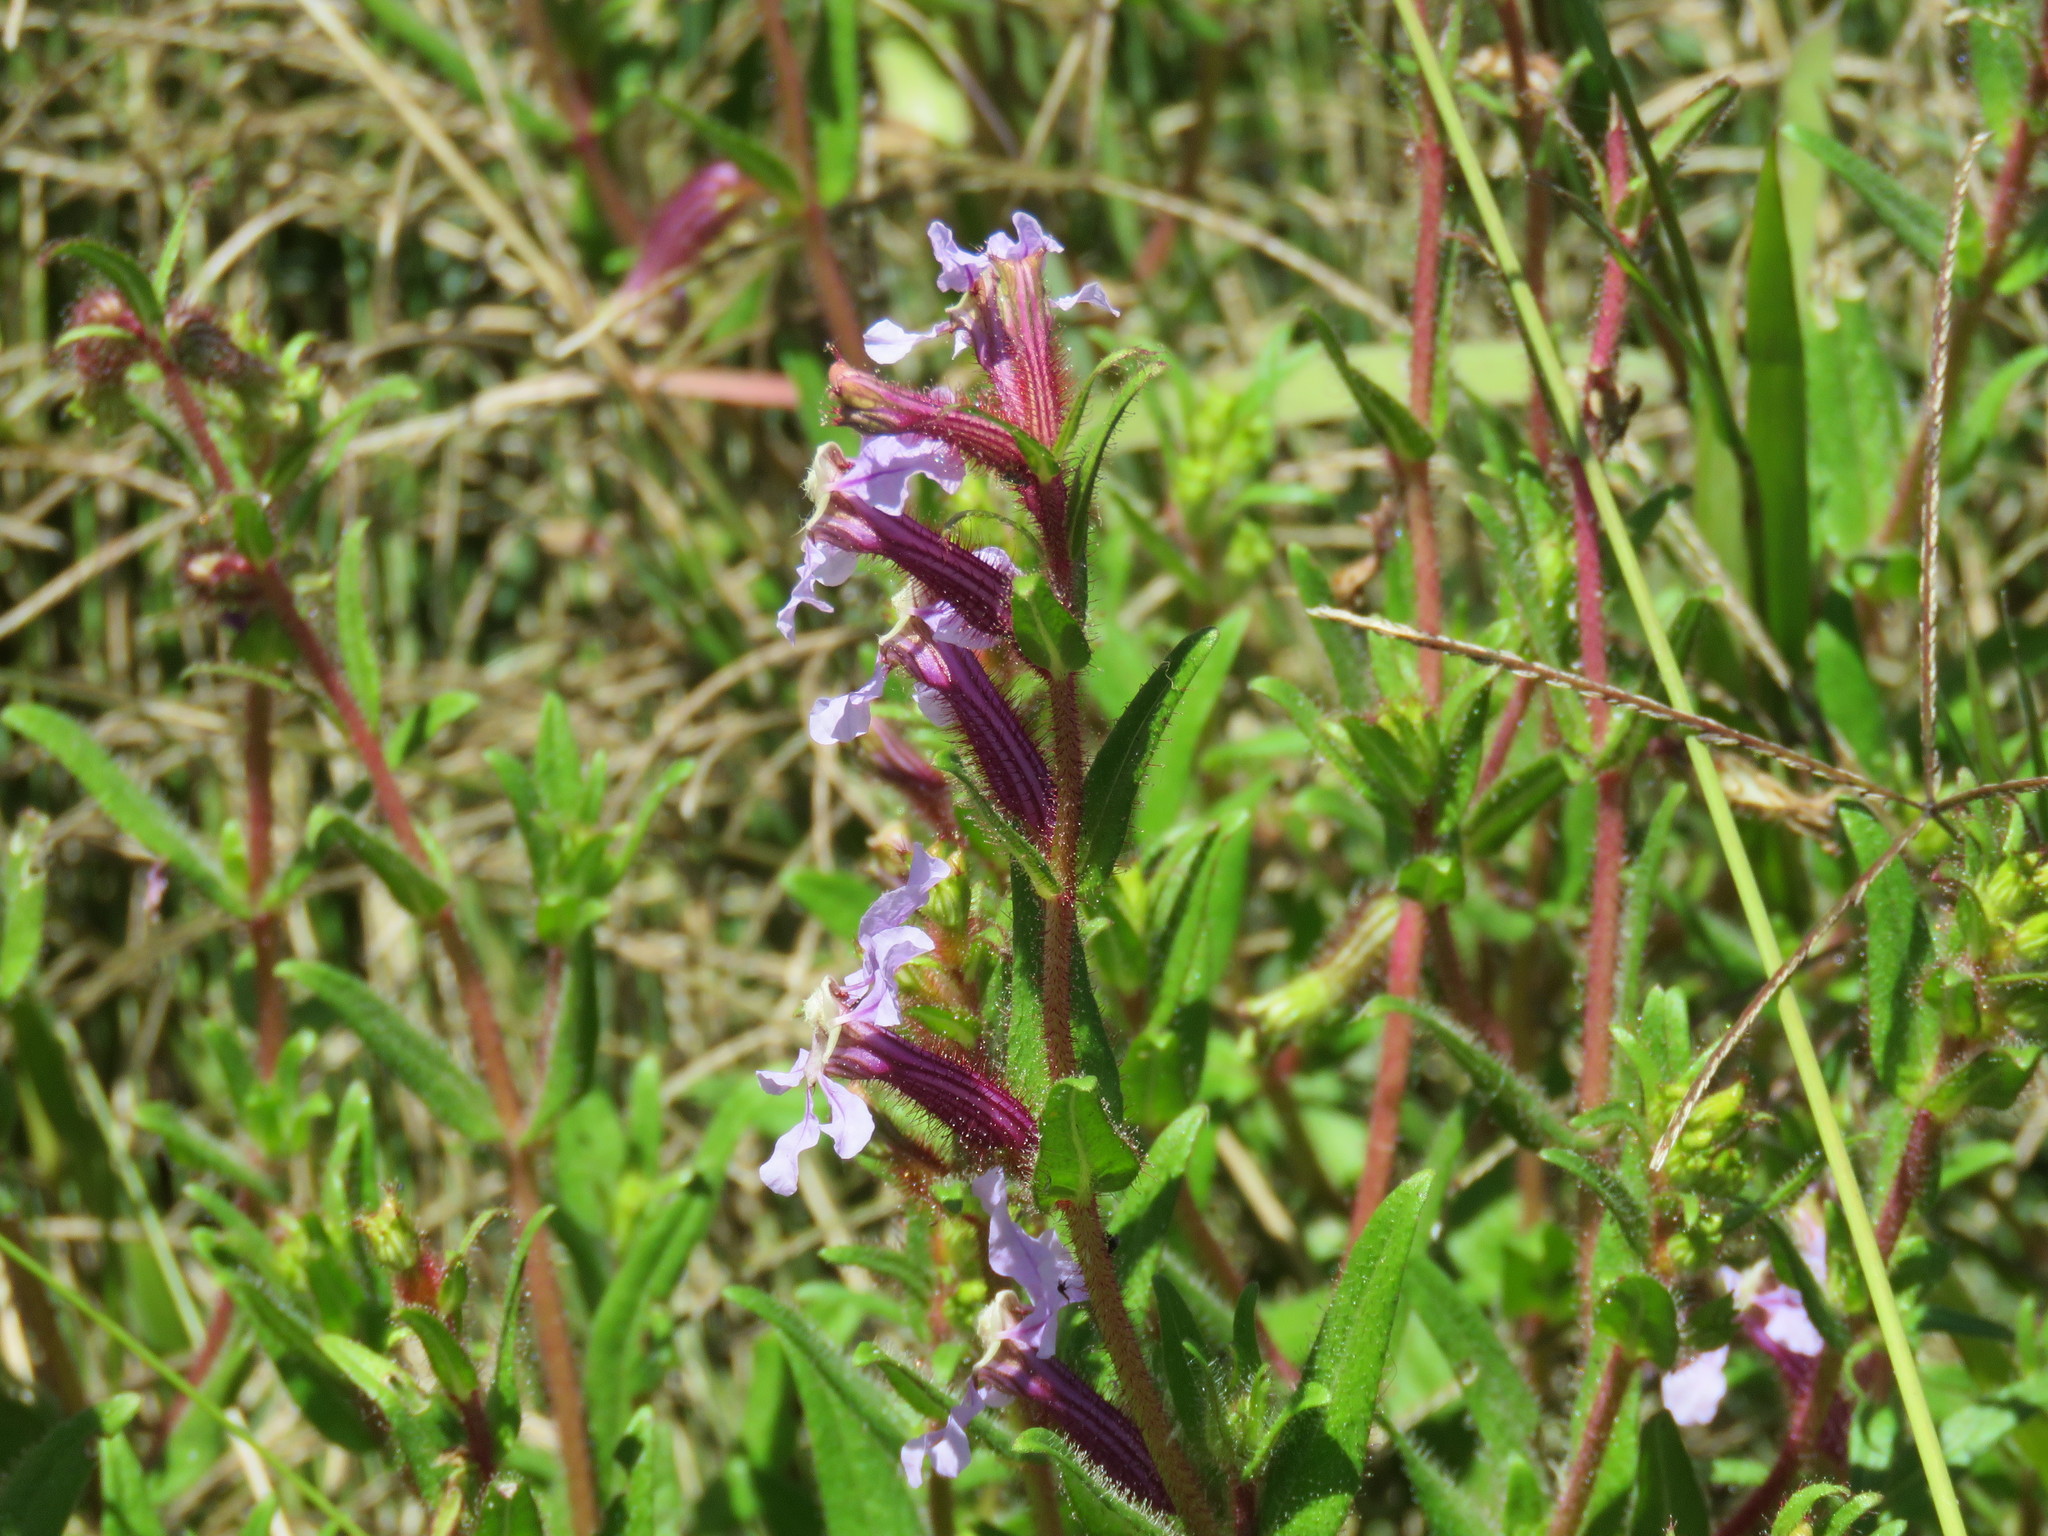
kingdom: Plantae
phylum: Tracheophyta
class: Magnoliopsida
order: Myrtales
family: Lythraceae
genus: Cuphea
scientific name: Cuphea wrightii
